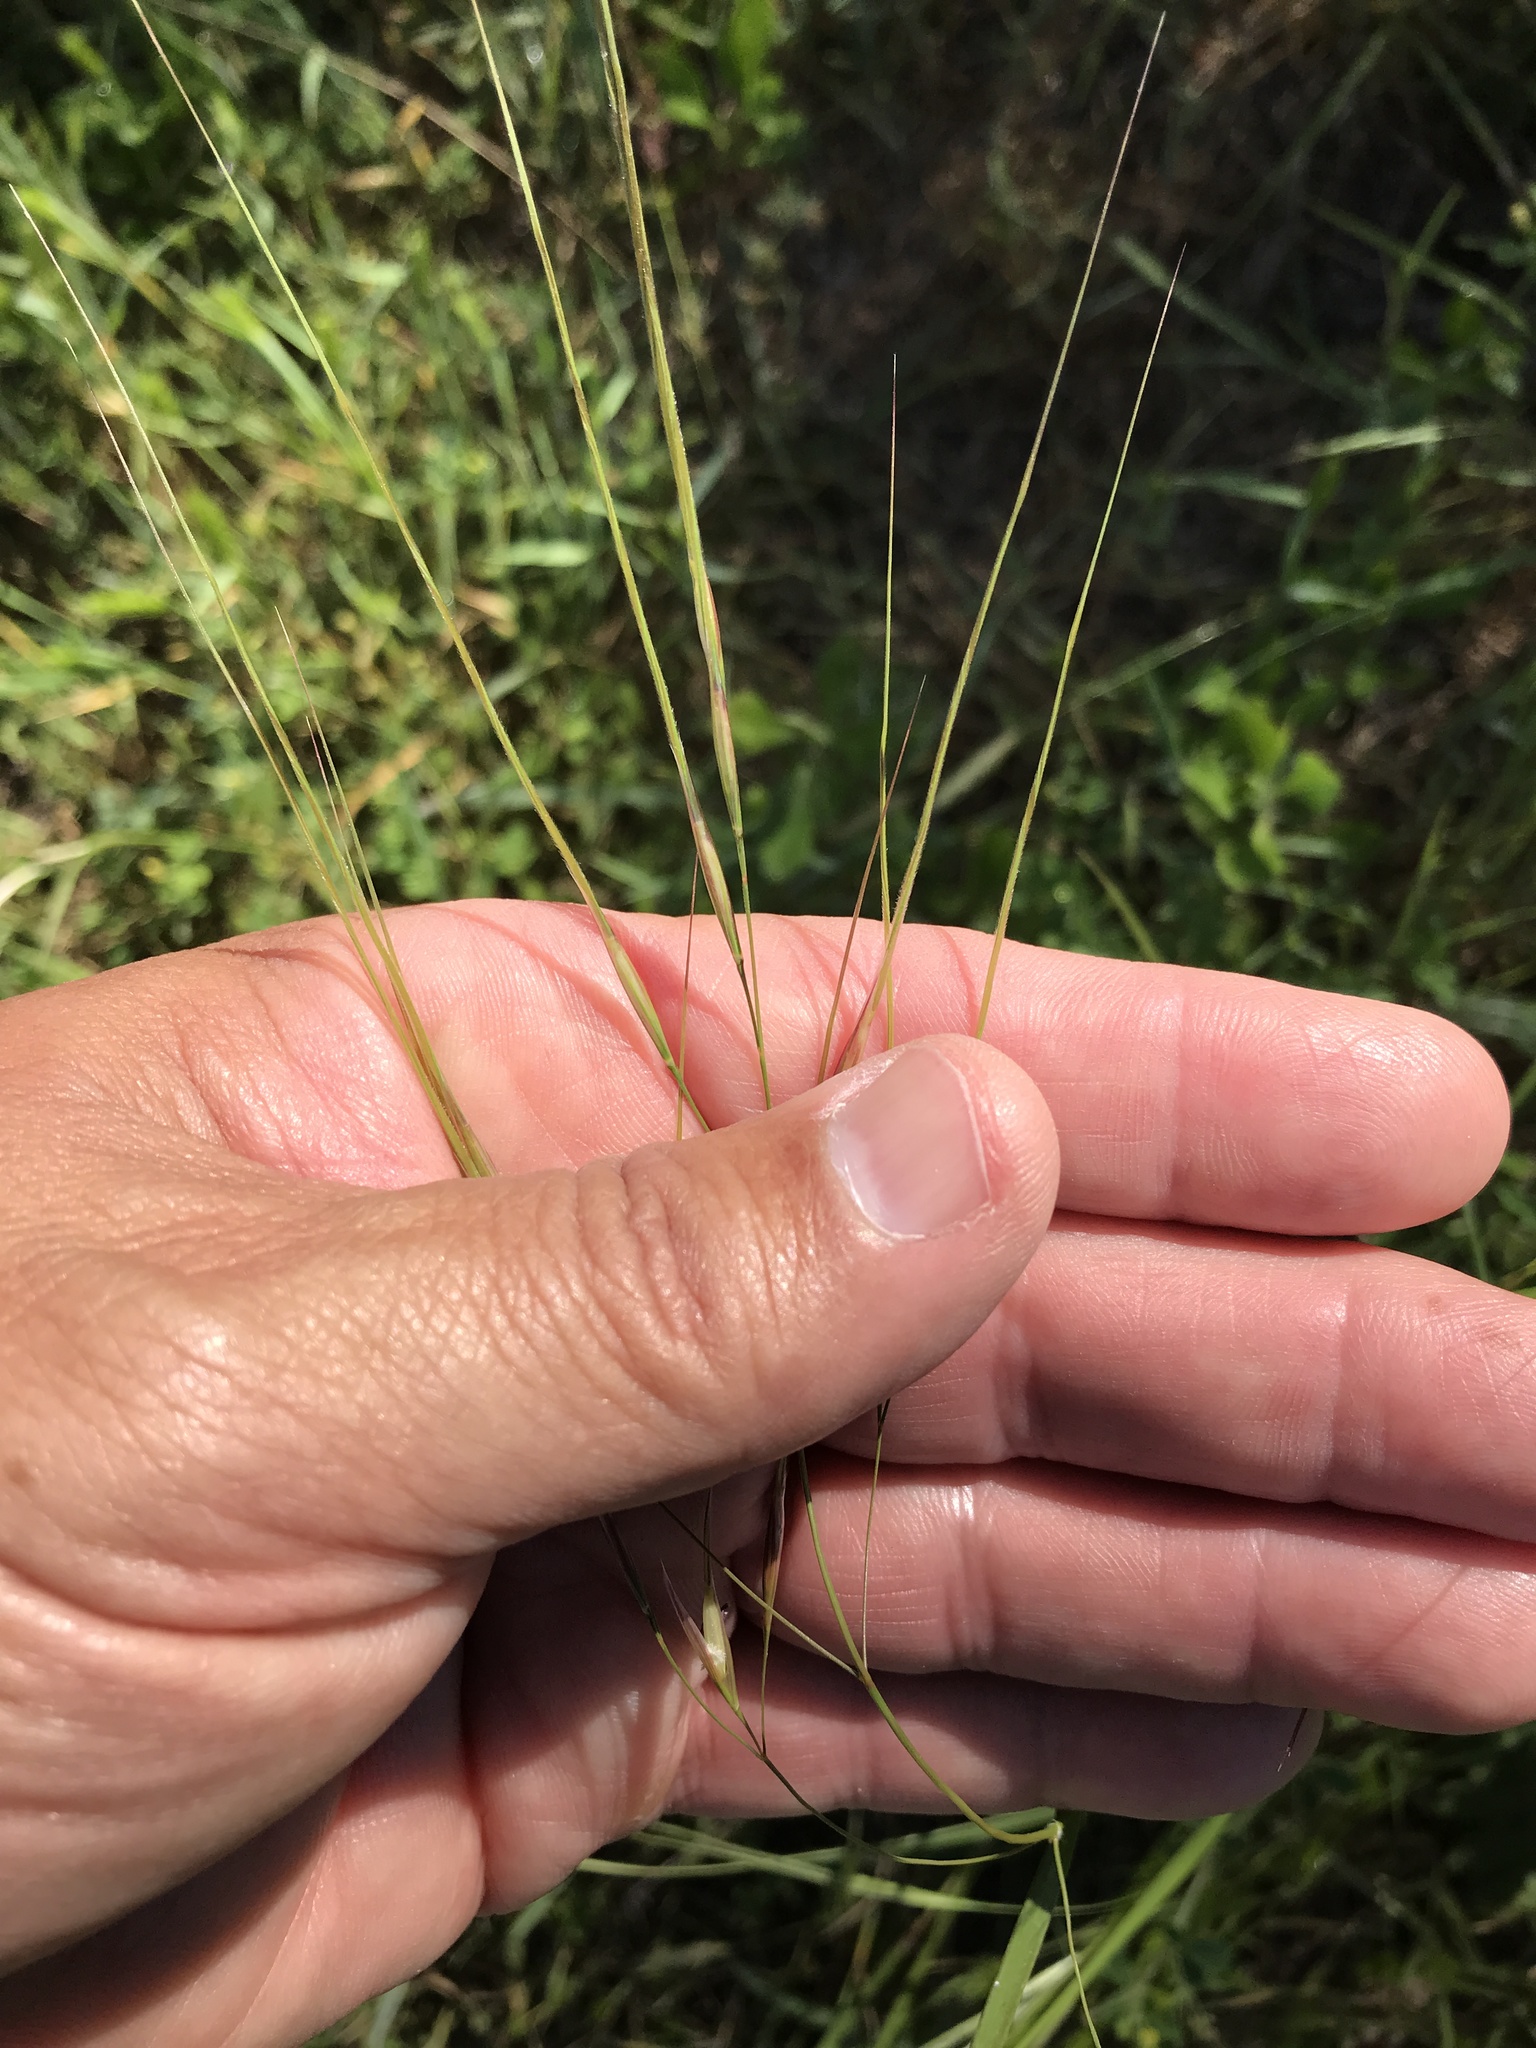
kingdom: Plantae
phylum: Tracheophyta
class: Liliopsida
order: Poales
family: Poaceae
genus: Nassella
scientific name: Nassella leucotricha
